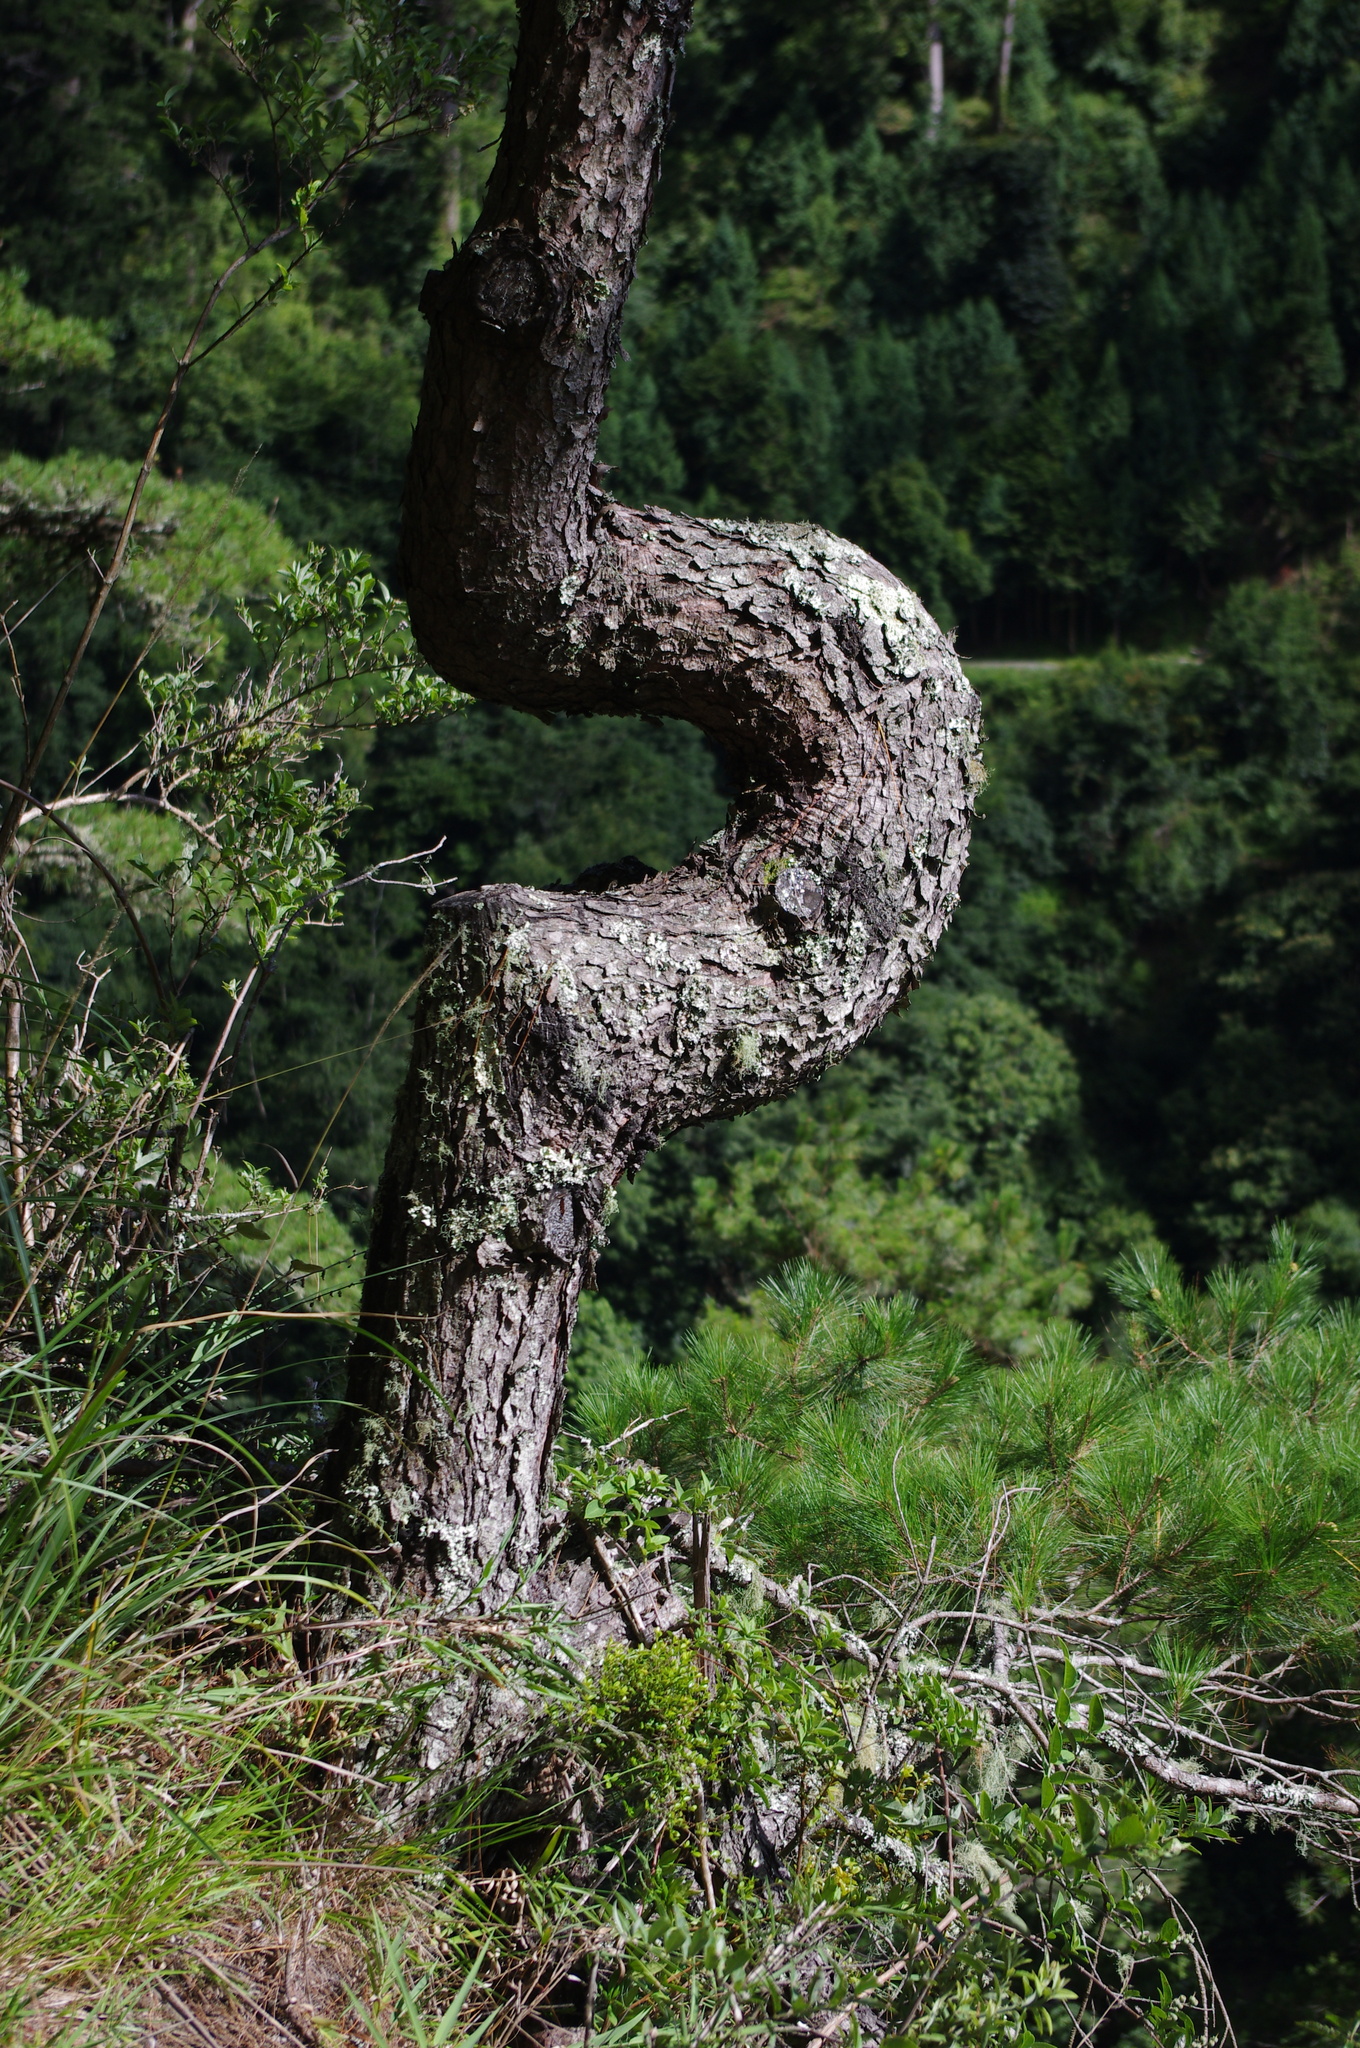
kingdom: Plantae
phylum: Tracheophyta
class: Pinopsida
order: Pinales
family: Pinaceae
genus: Pinus
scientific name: Pinus taiwanensis
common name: Formosa pine
